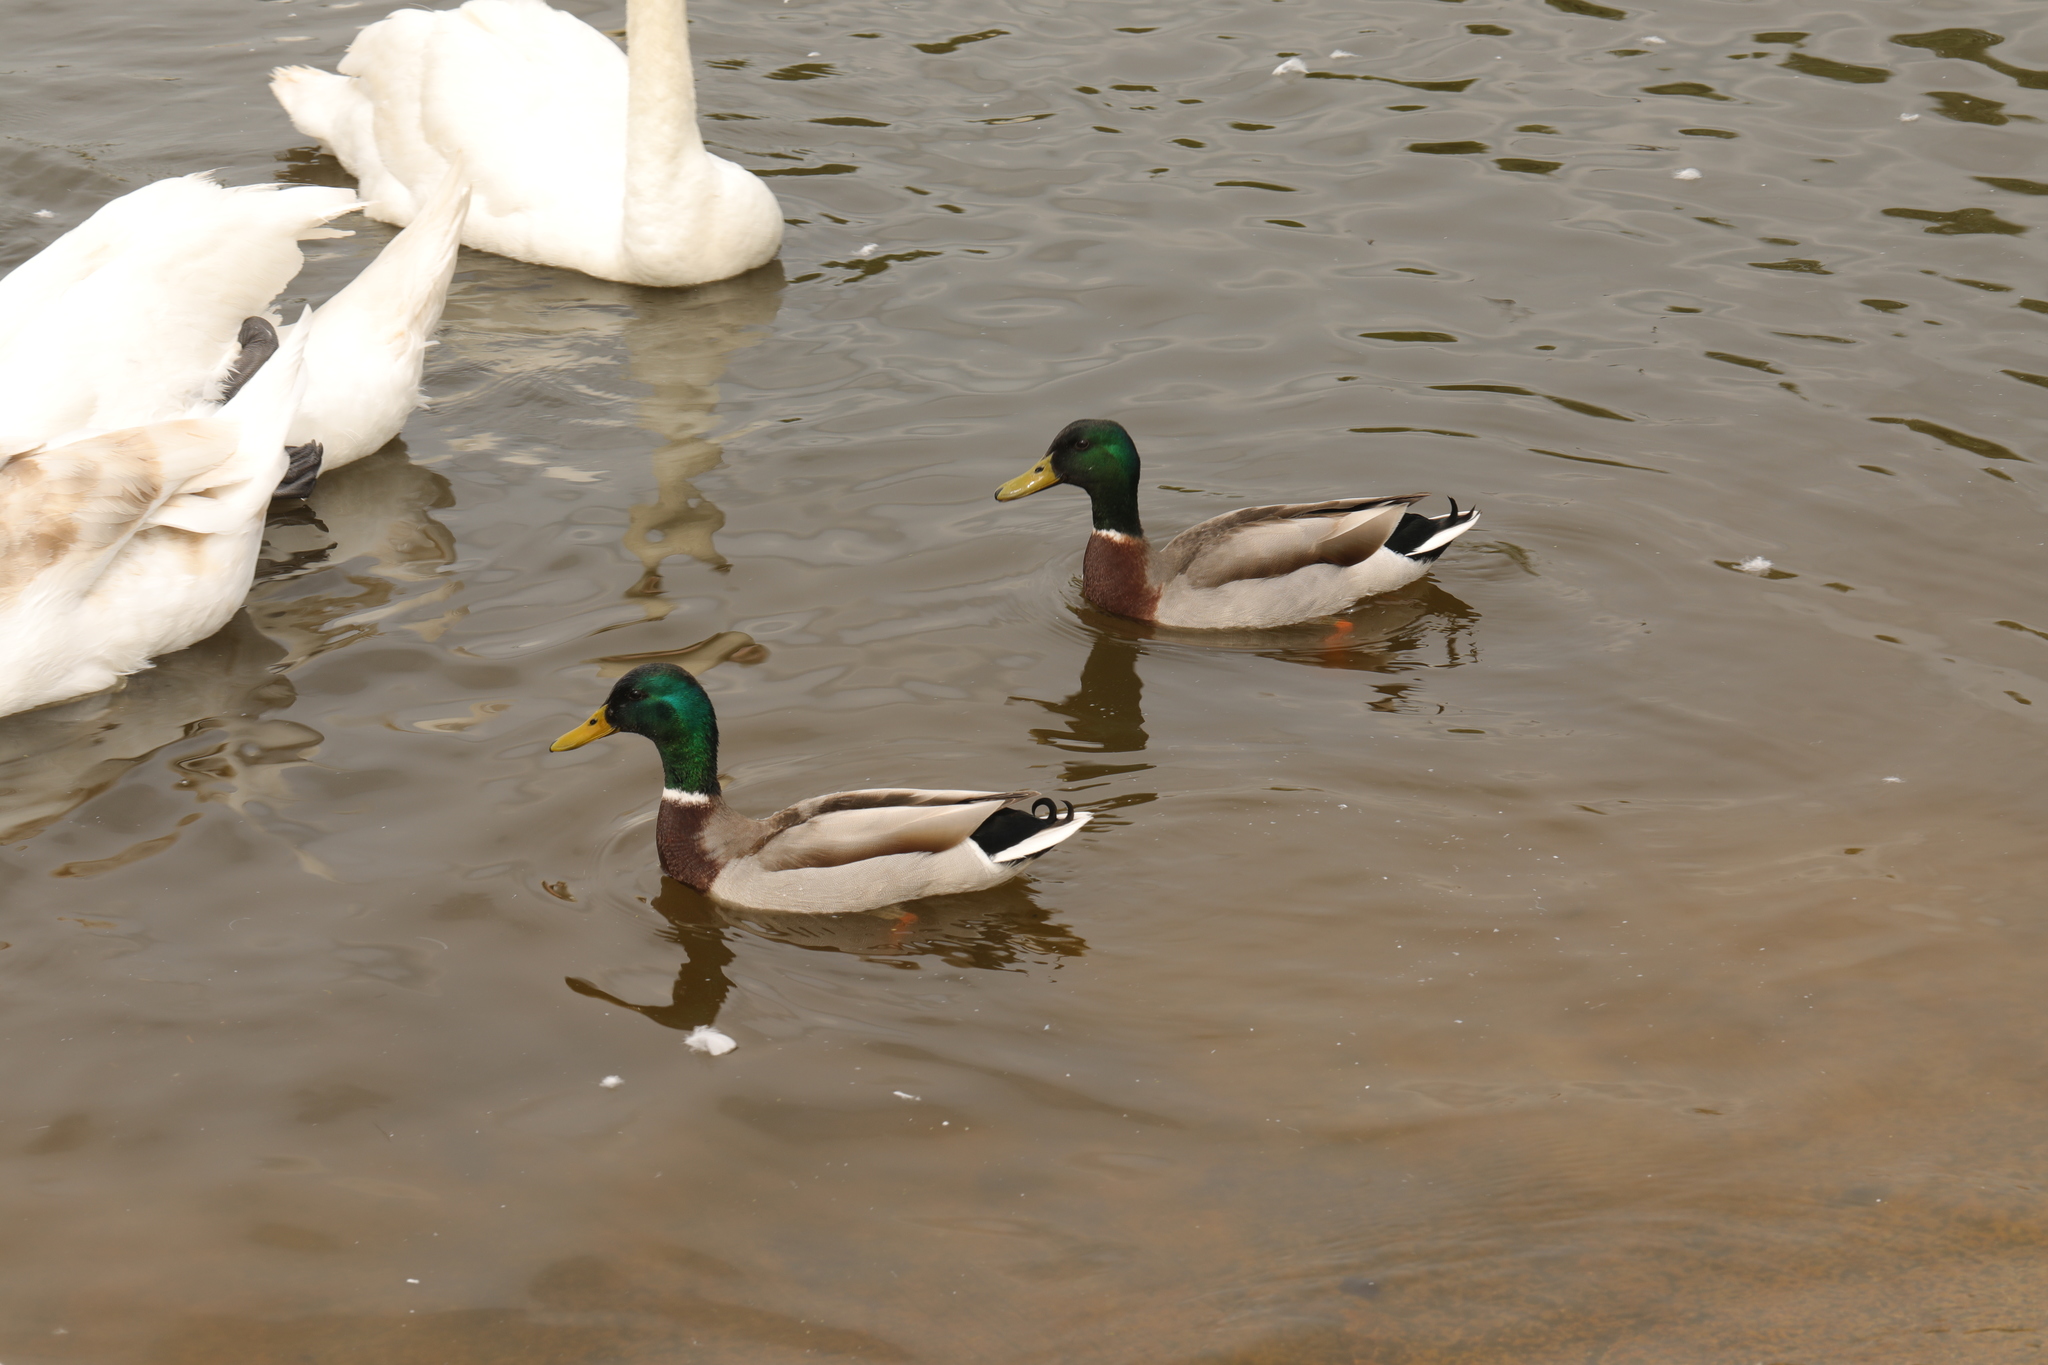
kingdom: Animalia
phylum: Chordata
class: Aves
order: Anseriformes
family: Anatidae
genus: Anas
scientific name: Anas platyrhynchos
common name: Mallard
